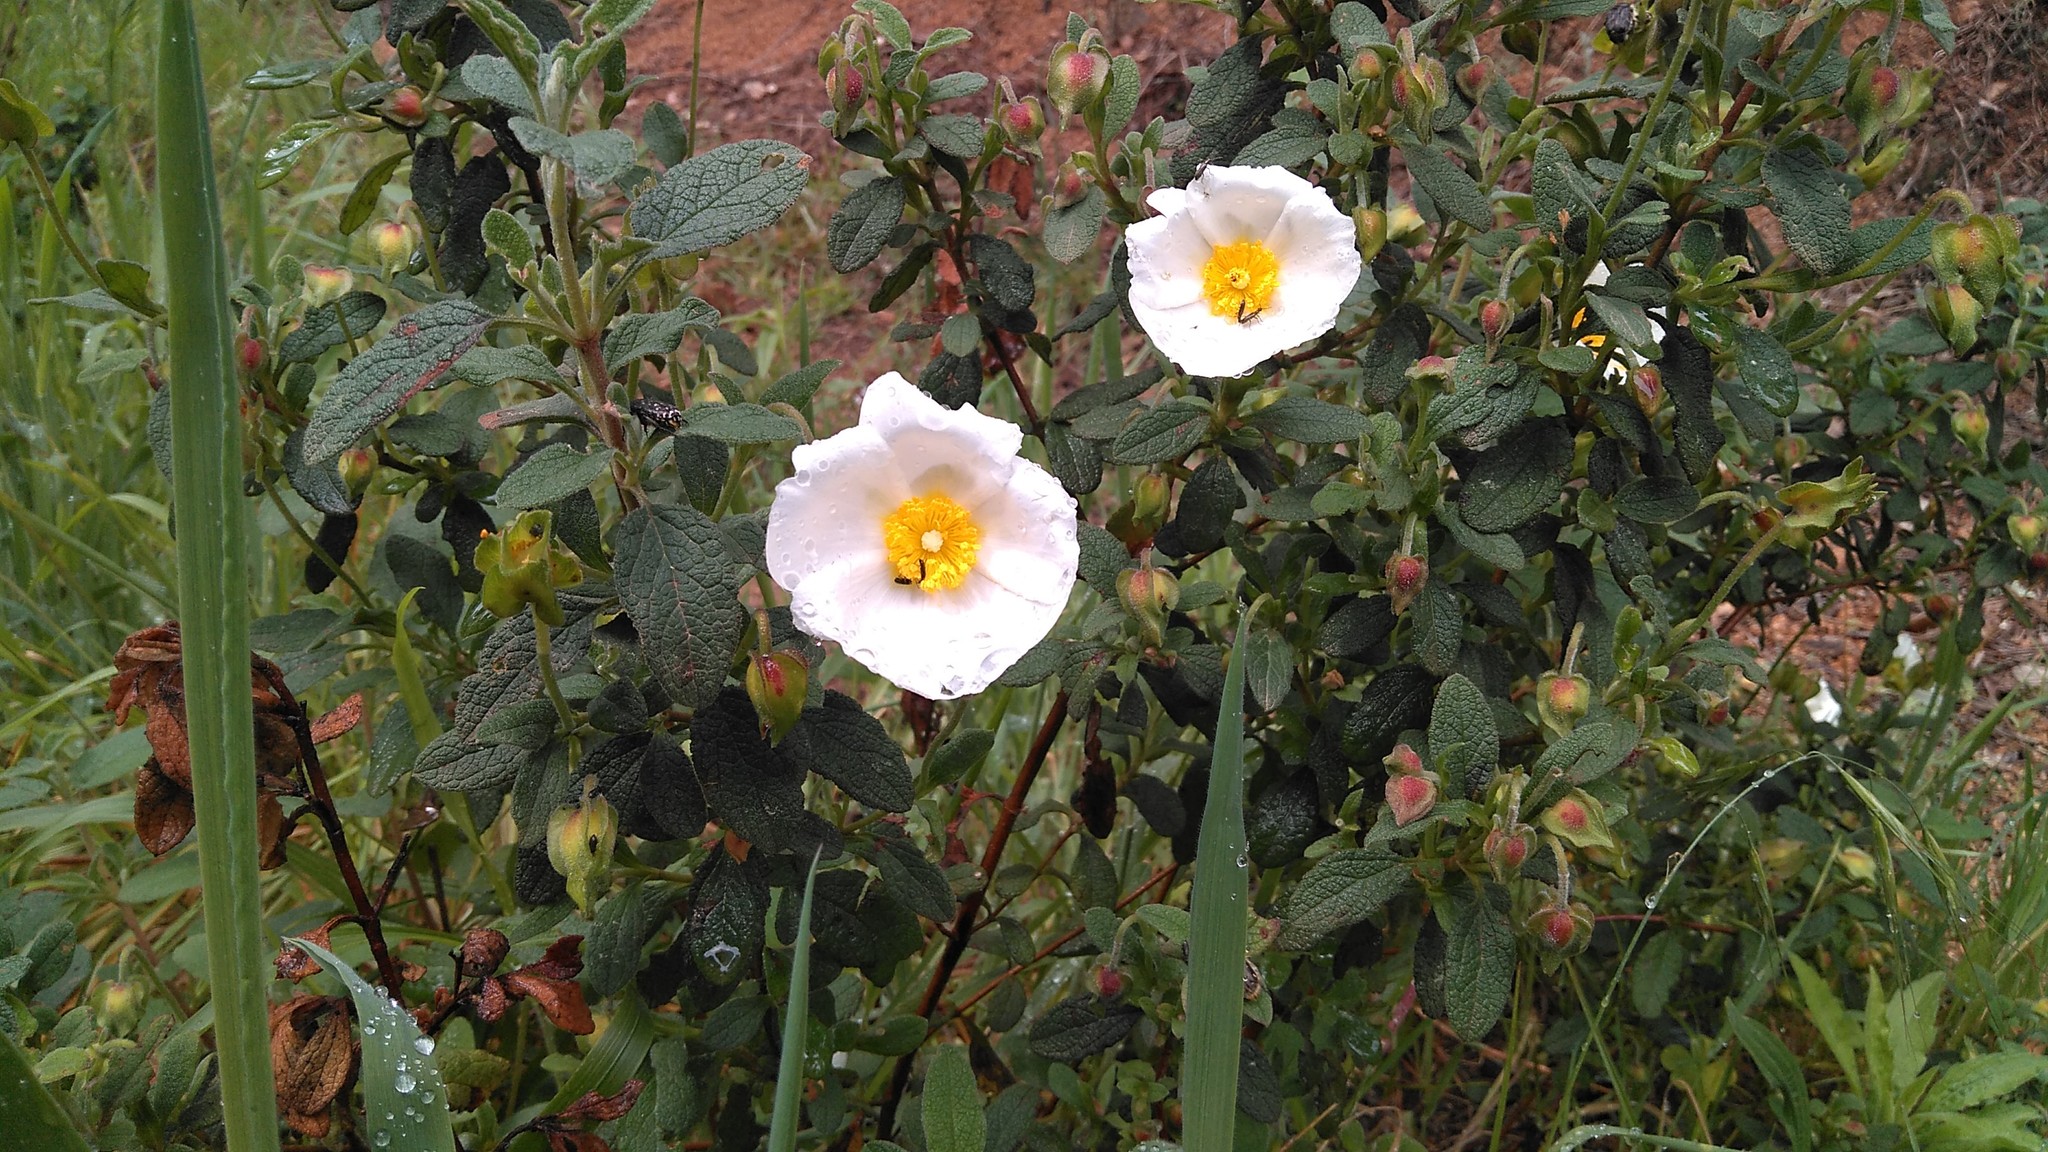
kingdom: Plantae
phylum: Tracheophyta
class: Magnoliopsida
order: Malvales
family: Cistaceae
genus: Cistus
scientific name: Cistus salviifolius
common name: Salvia cistus
